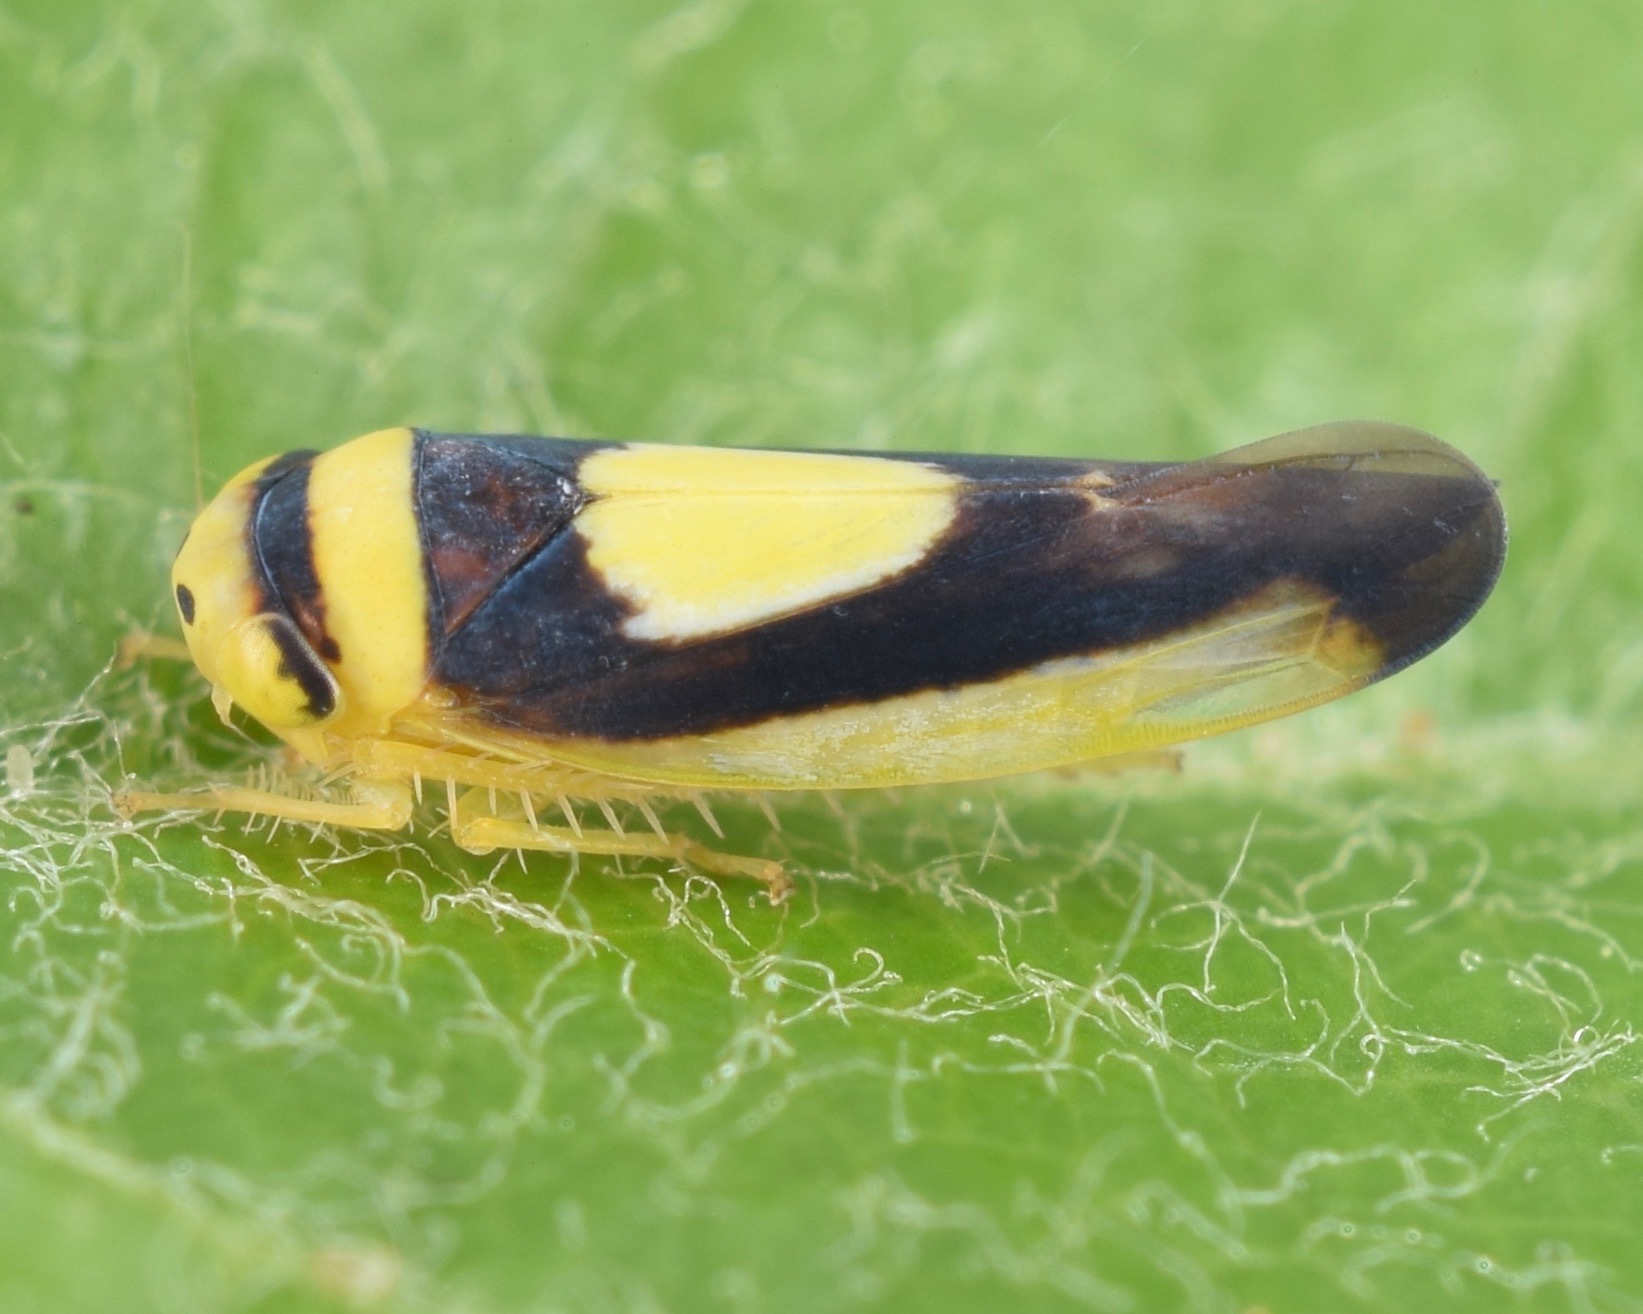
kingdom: Animalia
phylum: Arthropoda
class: Insecta
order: Hemiptera
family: Cicadellidae
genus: Colladonus
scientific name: Colladonus clitellarius
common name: The saddleback leafhopper
